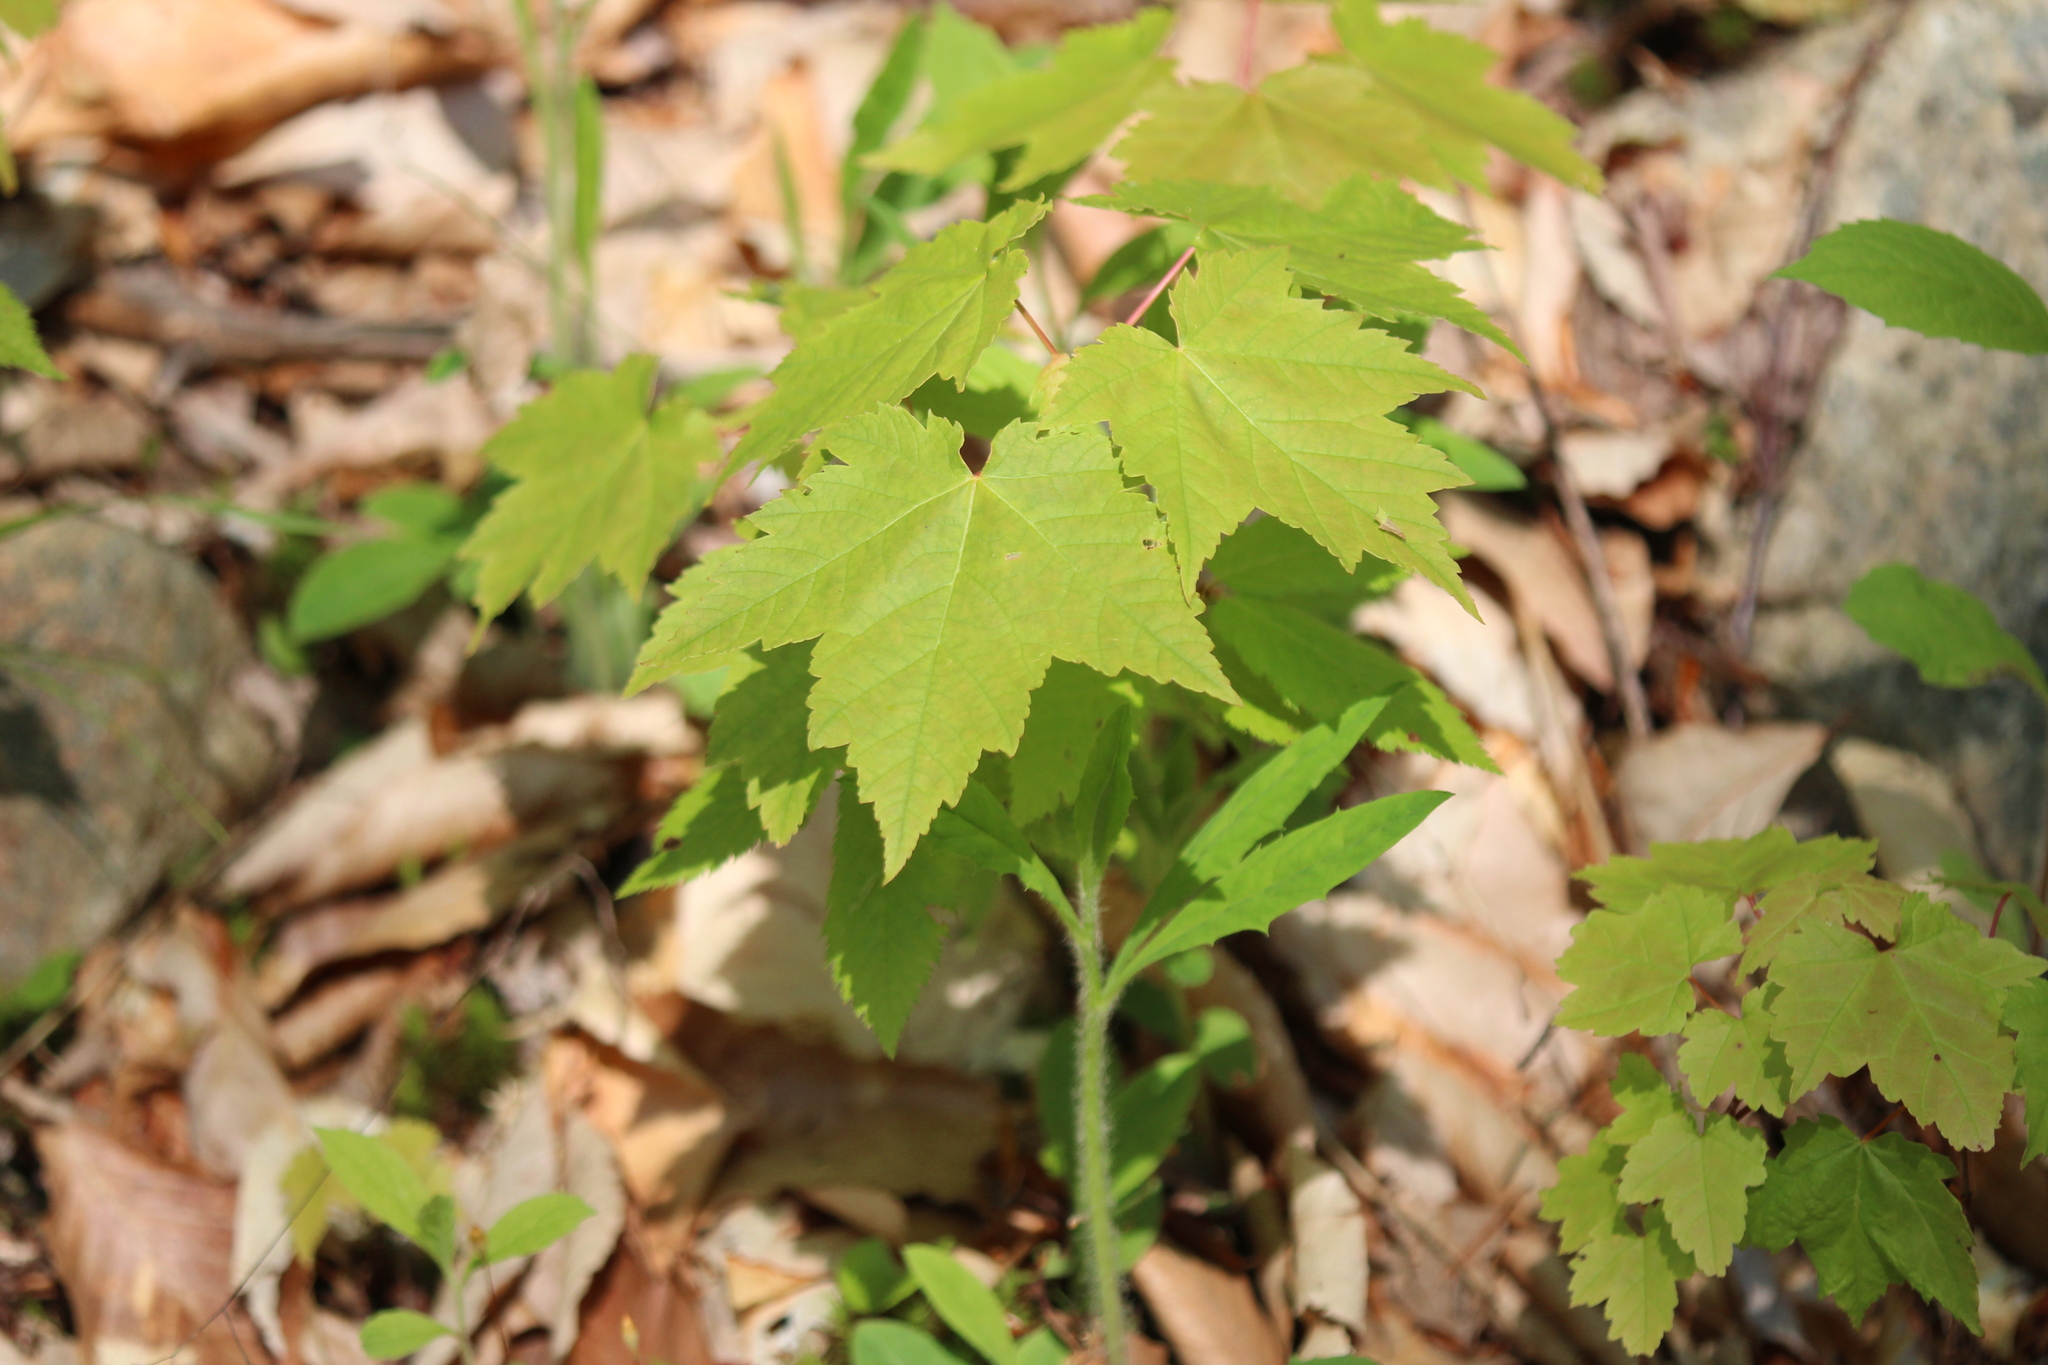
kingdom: Plantae
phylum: Tracheophyta
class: Magnoliopsida
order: Sapindales
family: Sapindaceae
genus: Acer
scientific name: Acer rubrum
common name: Red maple
